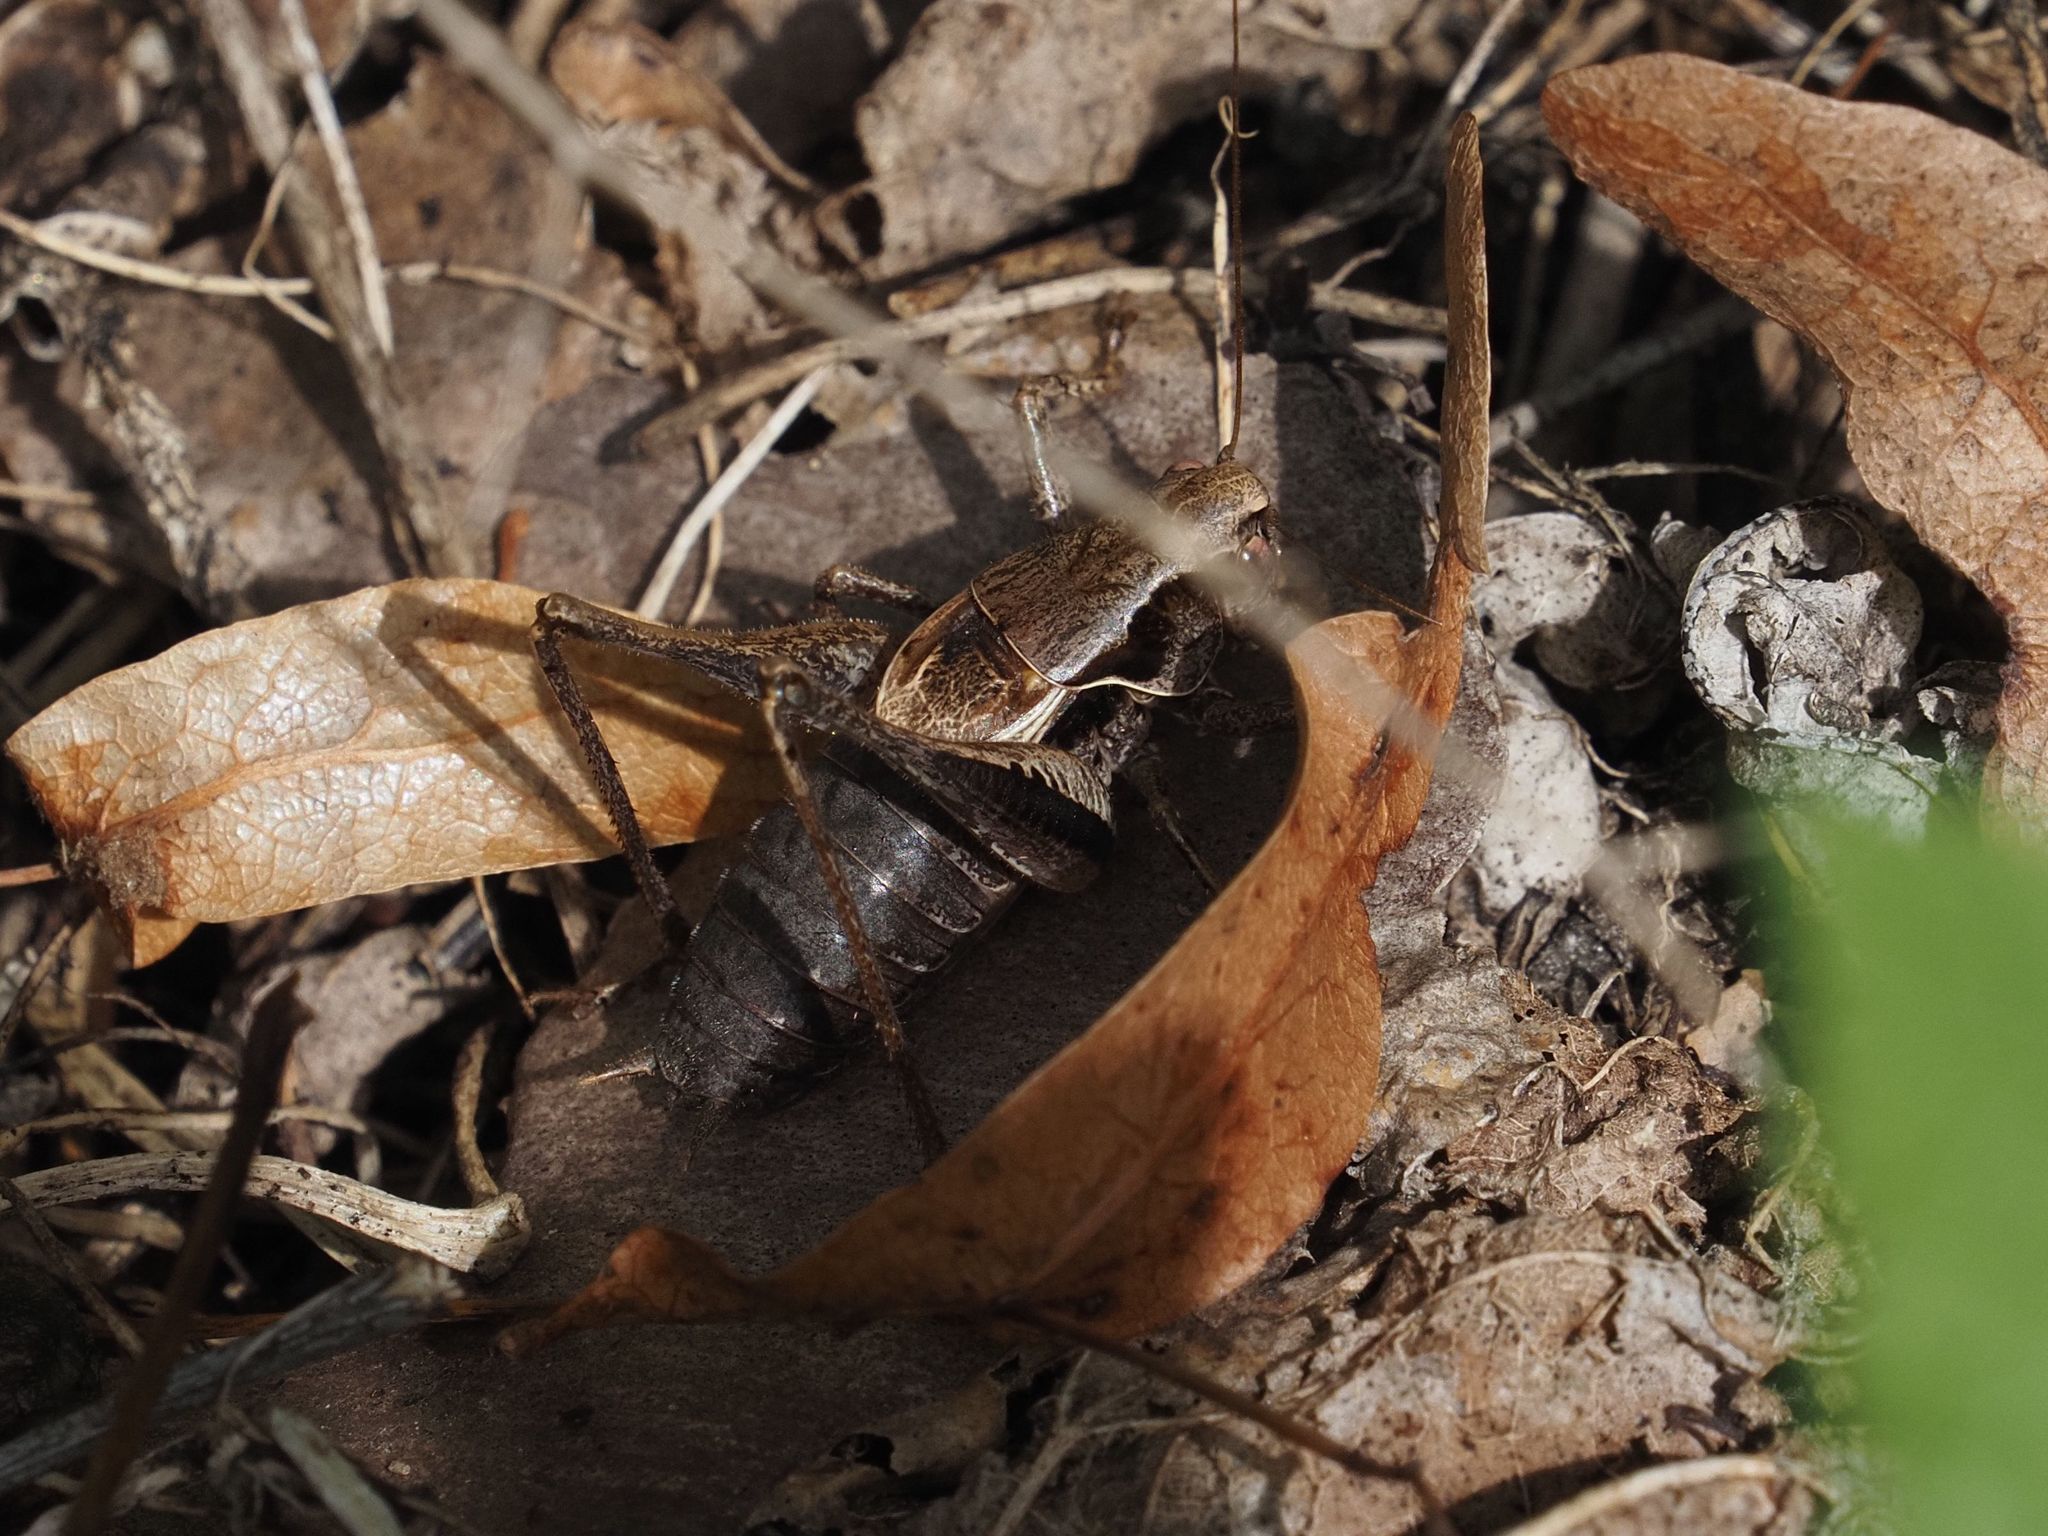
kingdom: Animalia
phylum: Arthropoda
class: Insecta
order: Orthoptera
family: Tettigoniidae
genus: Pholidoptera
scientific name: Pholidoptera griseoaptera
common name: Dark bush-cricket
